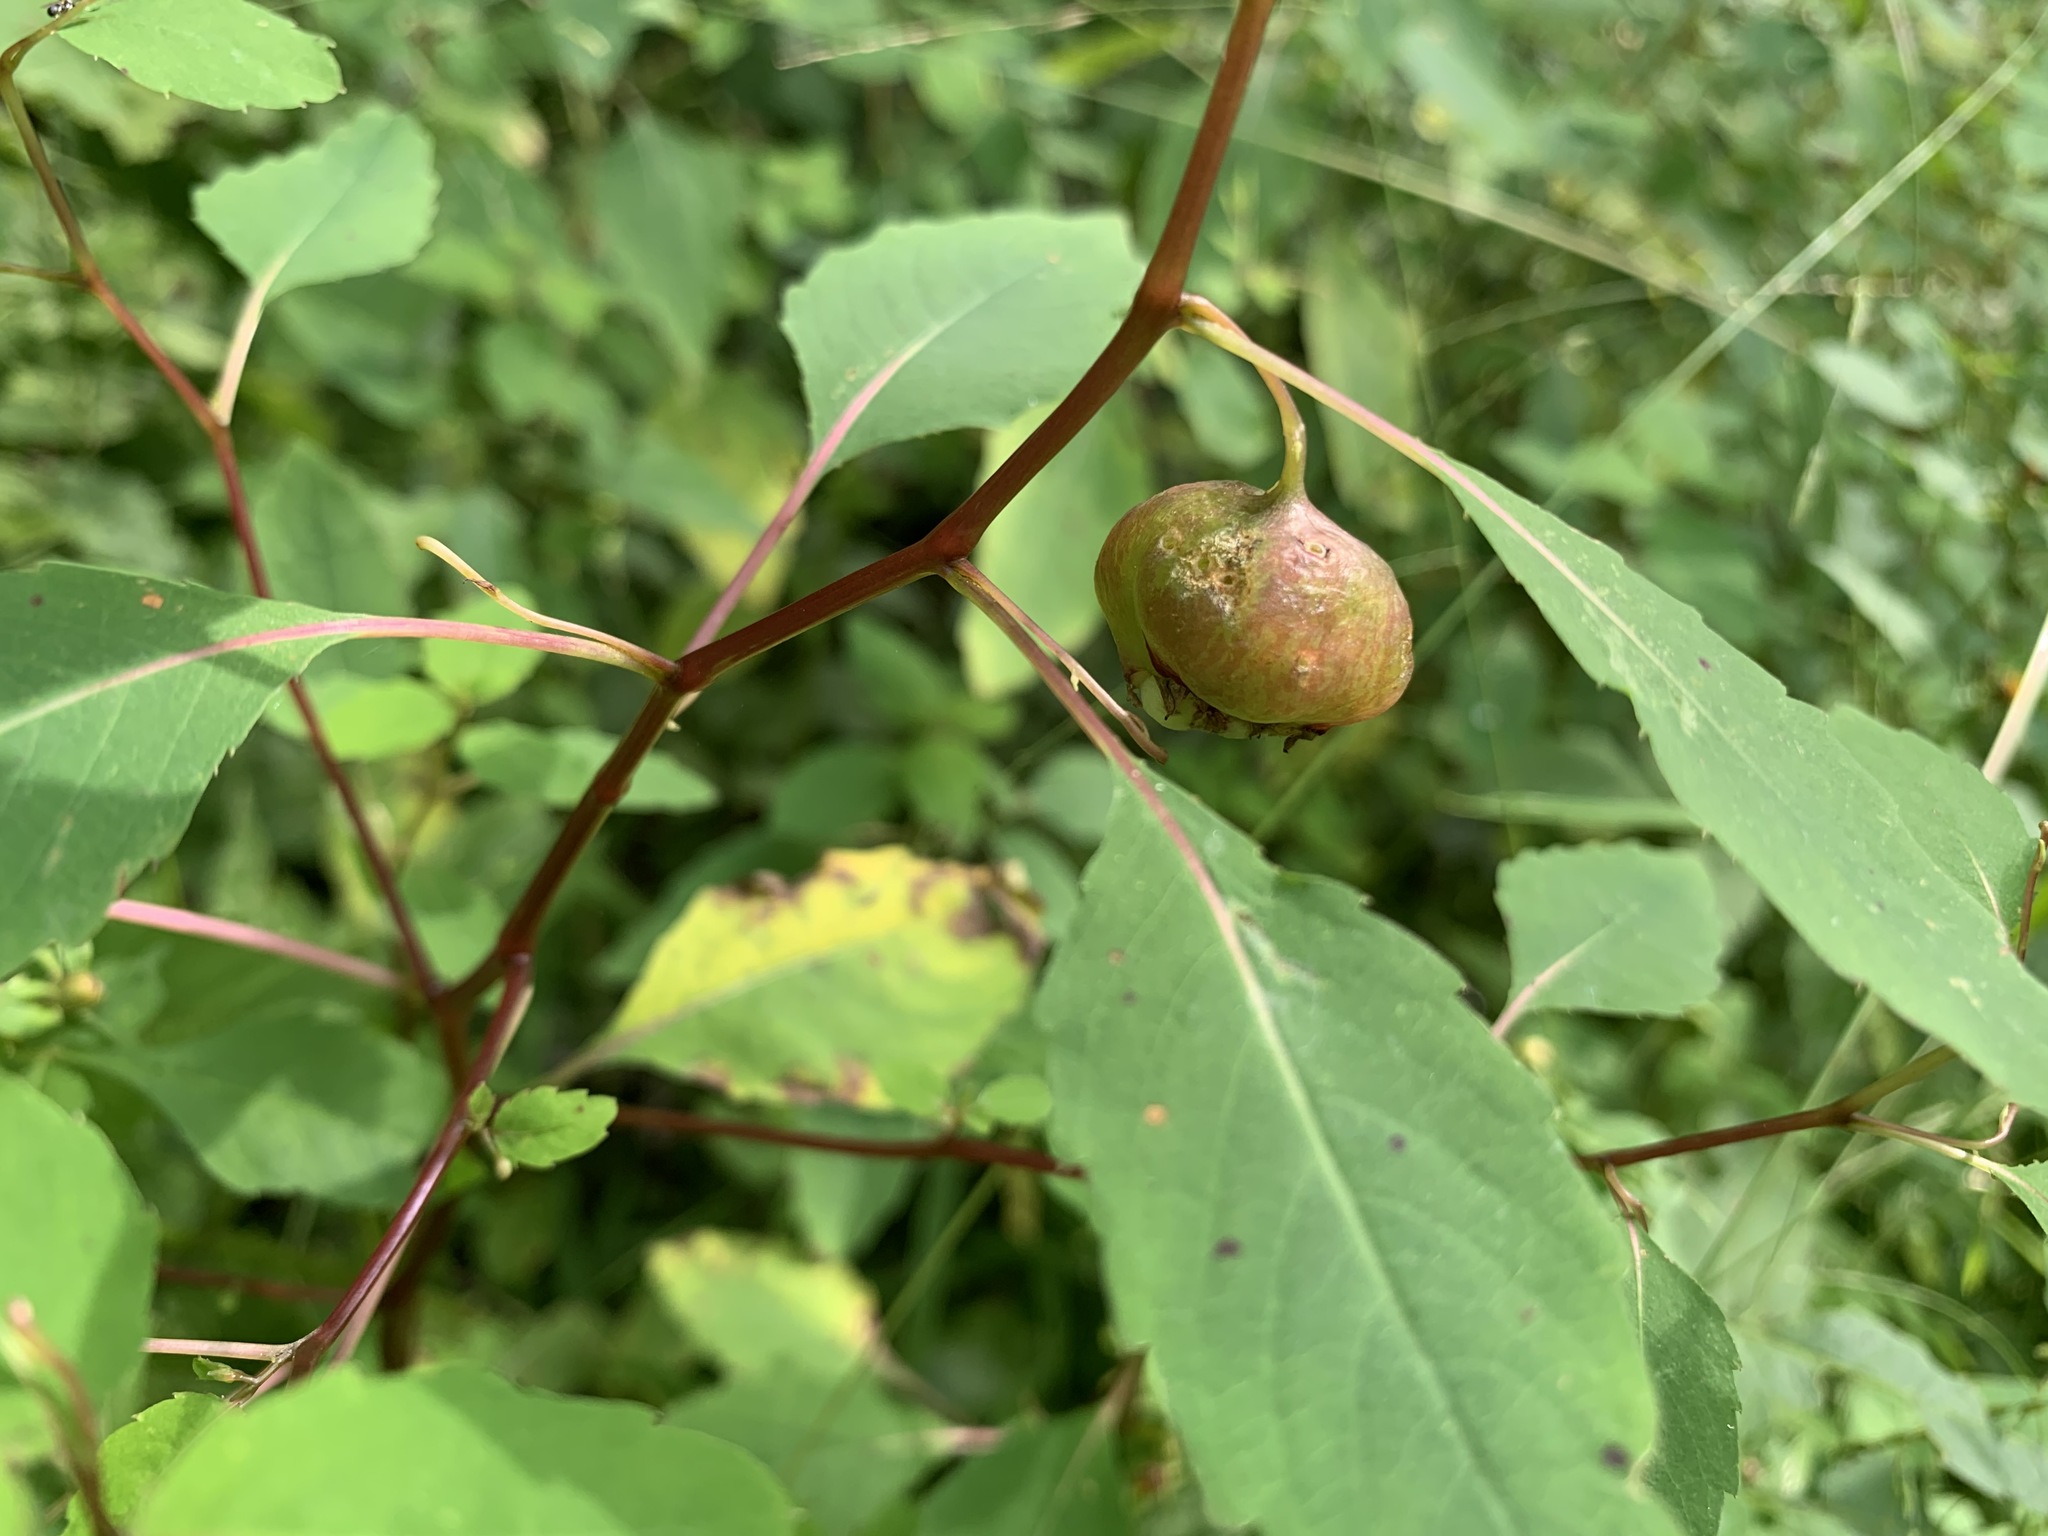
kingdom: Animalia
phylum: Arthropoda
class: Insecta
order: Diptera
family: Cecidomyiidae
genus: Schizomyia
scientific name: Schizomyia impatientis
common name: Jewelweed gall midge
